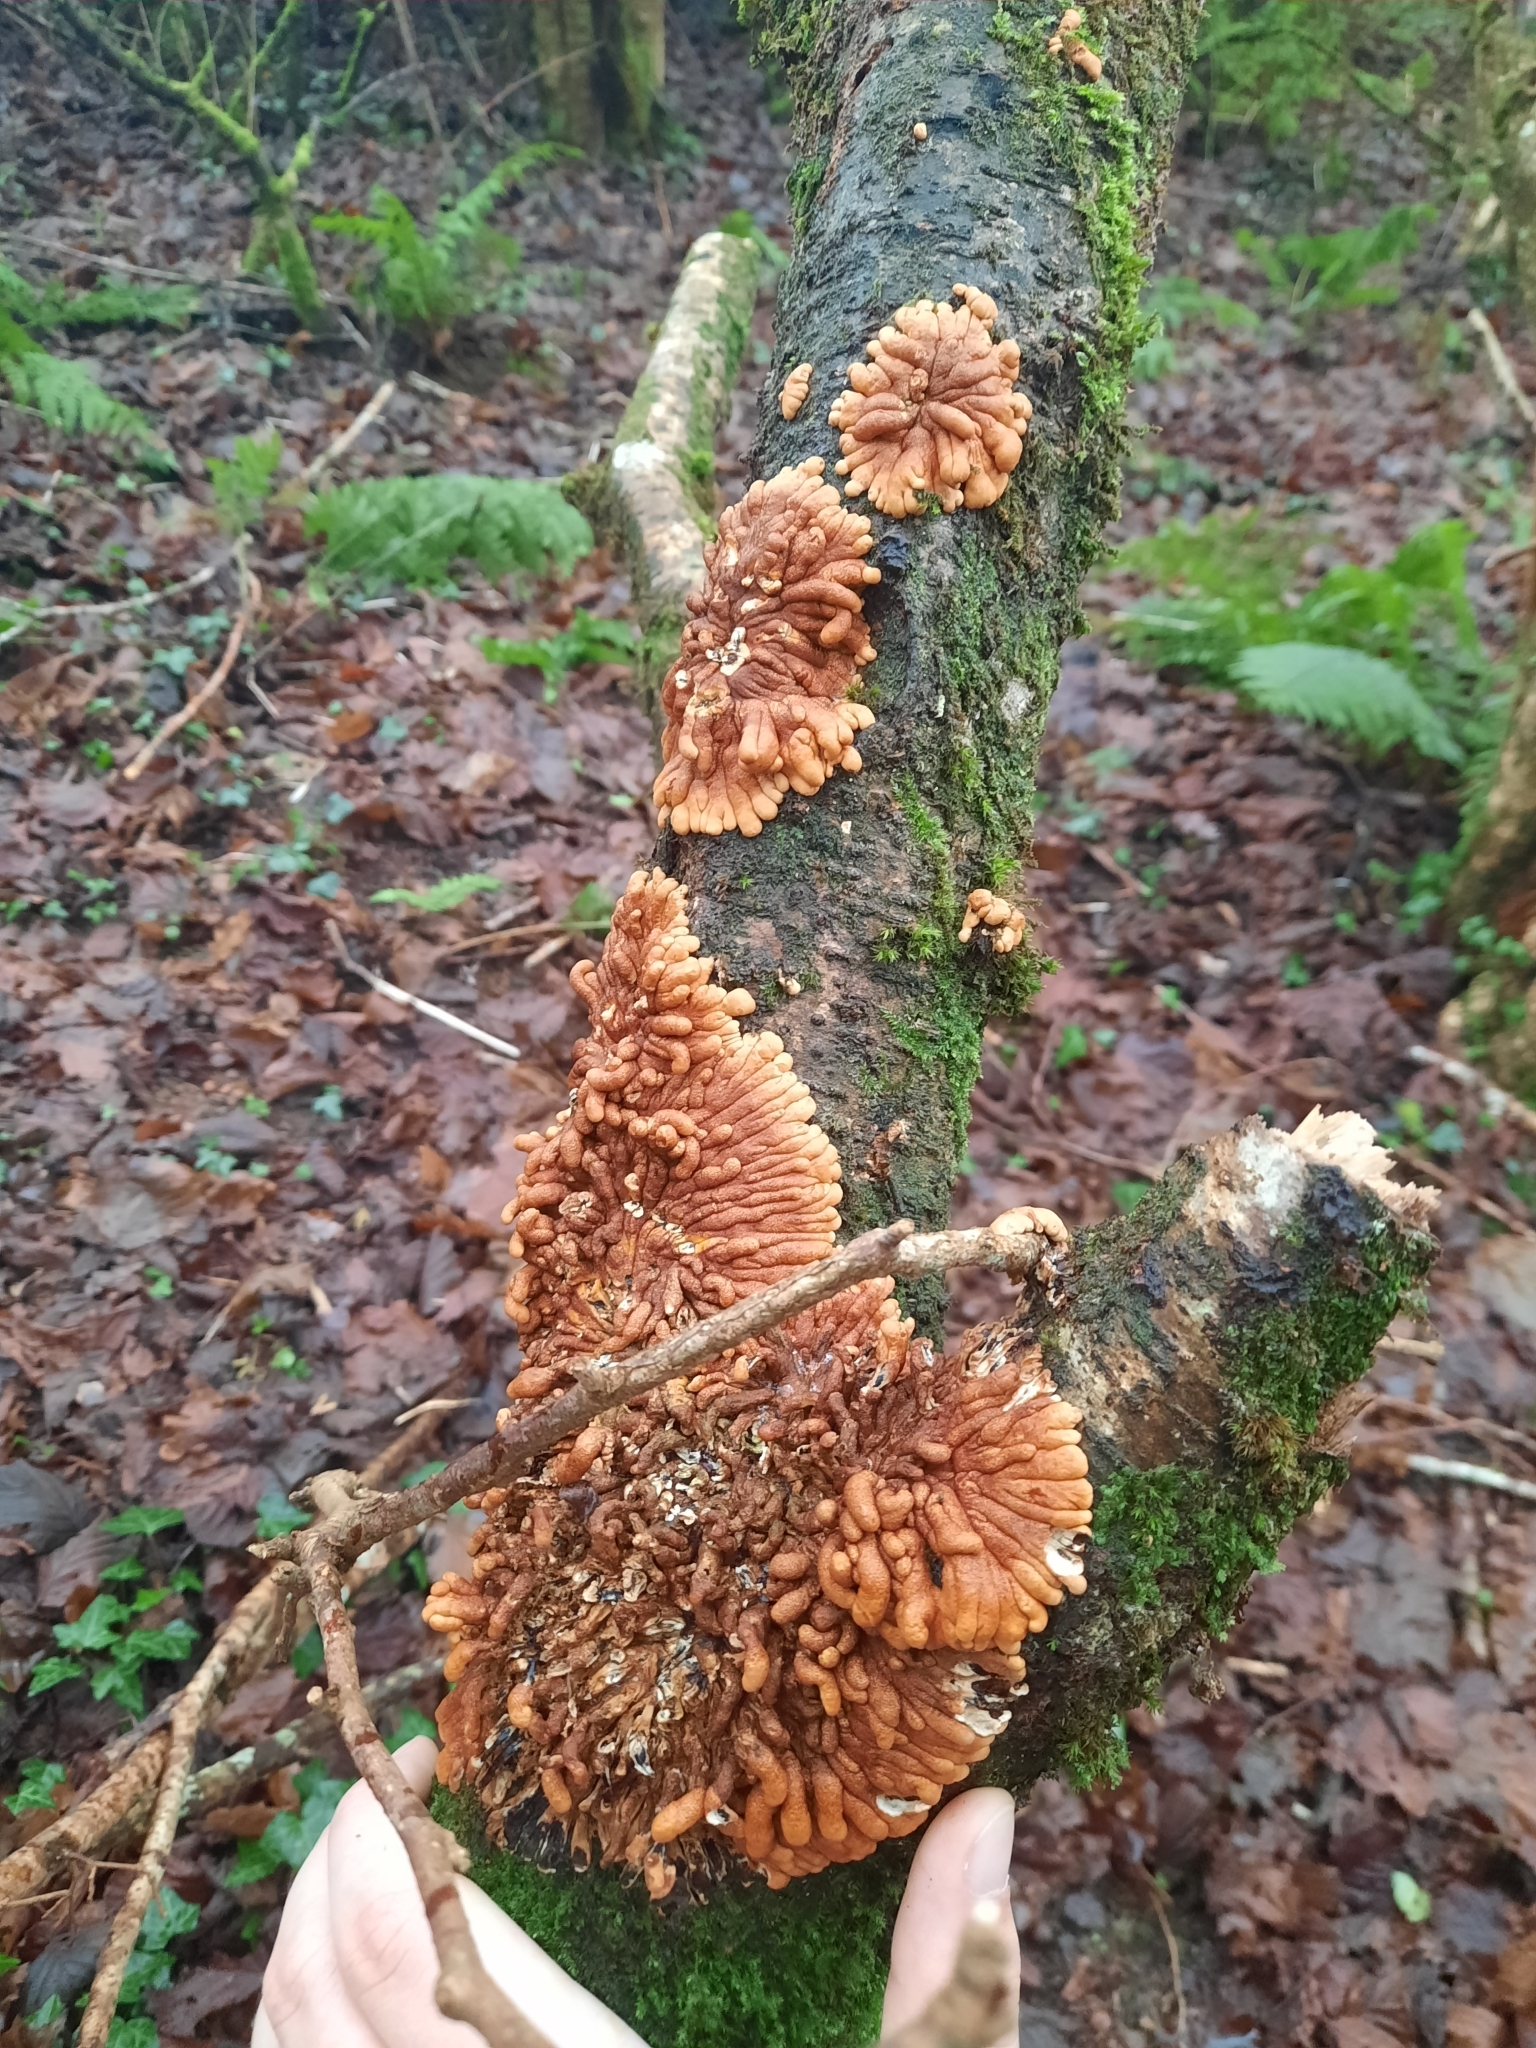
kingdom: Fungi
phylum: Ascomycota
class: Sordariomycetes
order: Hypocreales
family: Hypocreaceae
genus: Hypocreopsis
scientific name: Hypocreopsis rhododendri
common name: Hazel gloves
